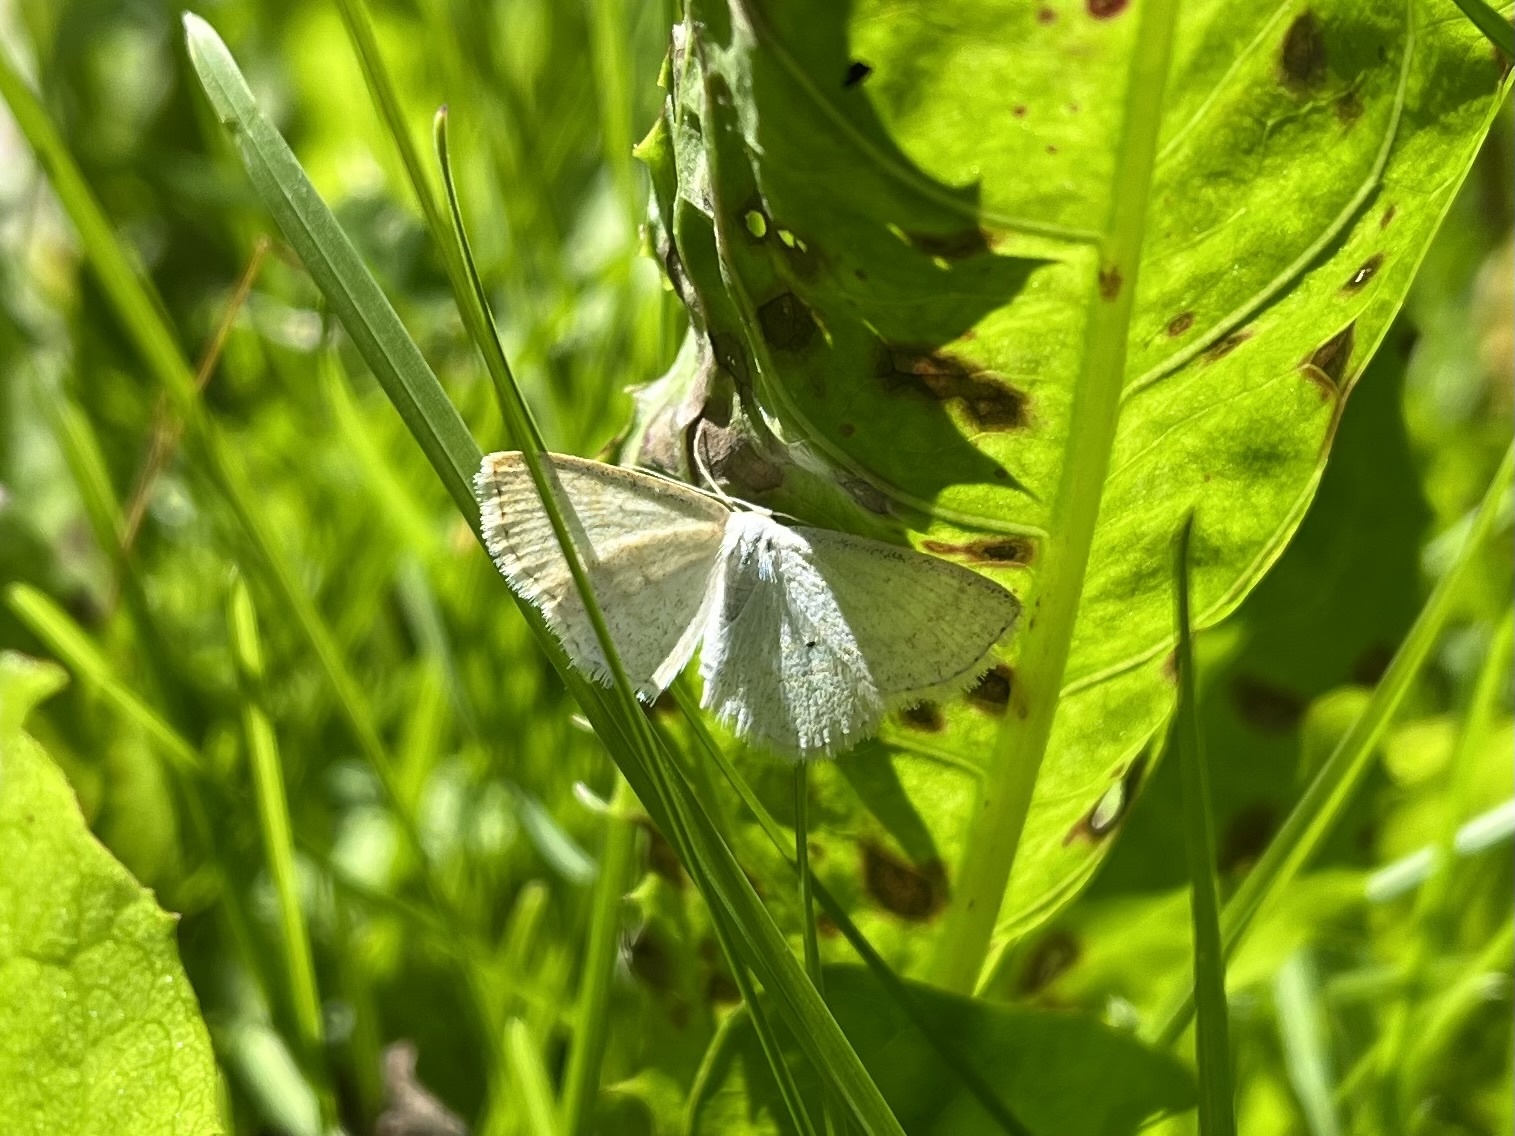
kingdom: Animalia
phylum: Arthropoda
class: Insecta
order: Lepidoptera
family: Geometridae
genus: Scopula
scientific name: Scopula immutata
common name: Lesser cream wave
